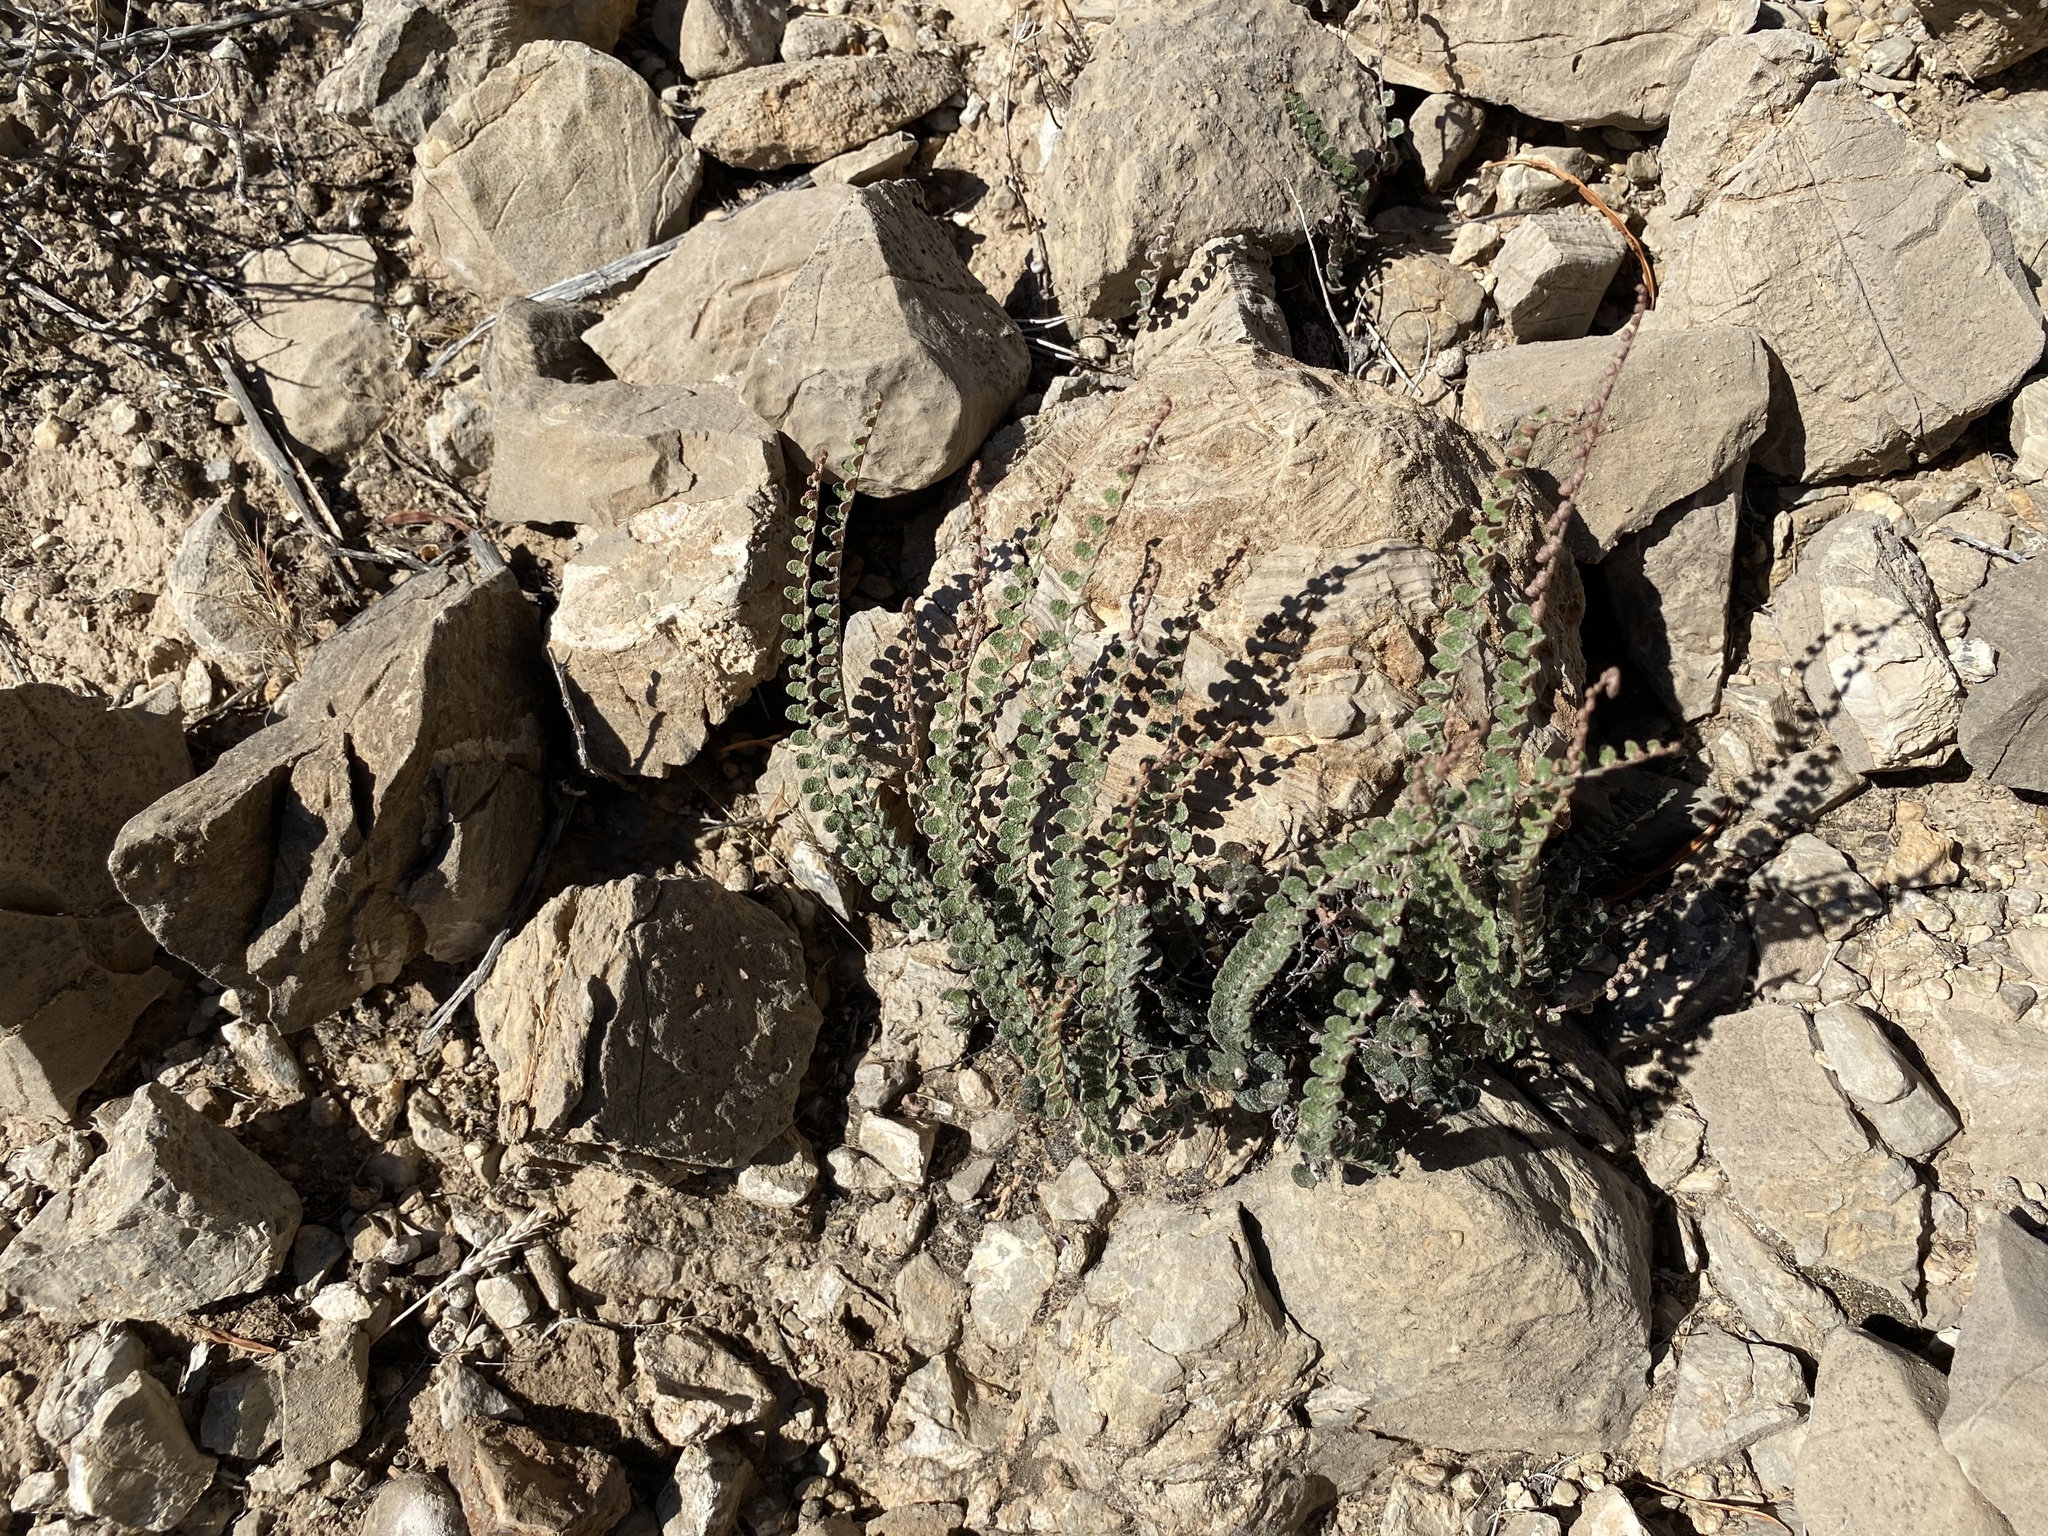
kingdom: Plantae
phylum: Tracheophyta
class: Polypodiopsida
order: Polypodiales
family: Pteridaceae
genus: Astrolepis
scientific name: Astrolepis cochisensis
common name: Scaly cloak fern
